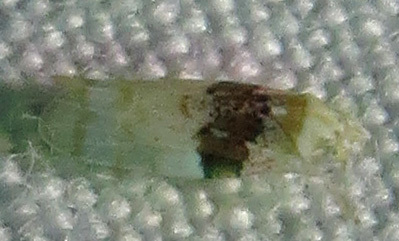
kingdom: Animalia
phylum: Arthropoda
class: Insecta
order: Hemiptera
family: Cicadellidae
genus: Hymetta
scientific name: Hymetta anthisma
